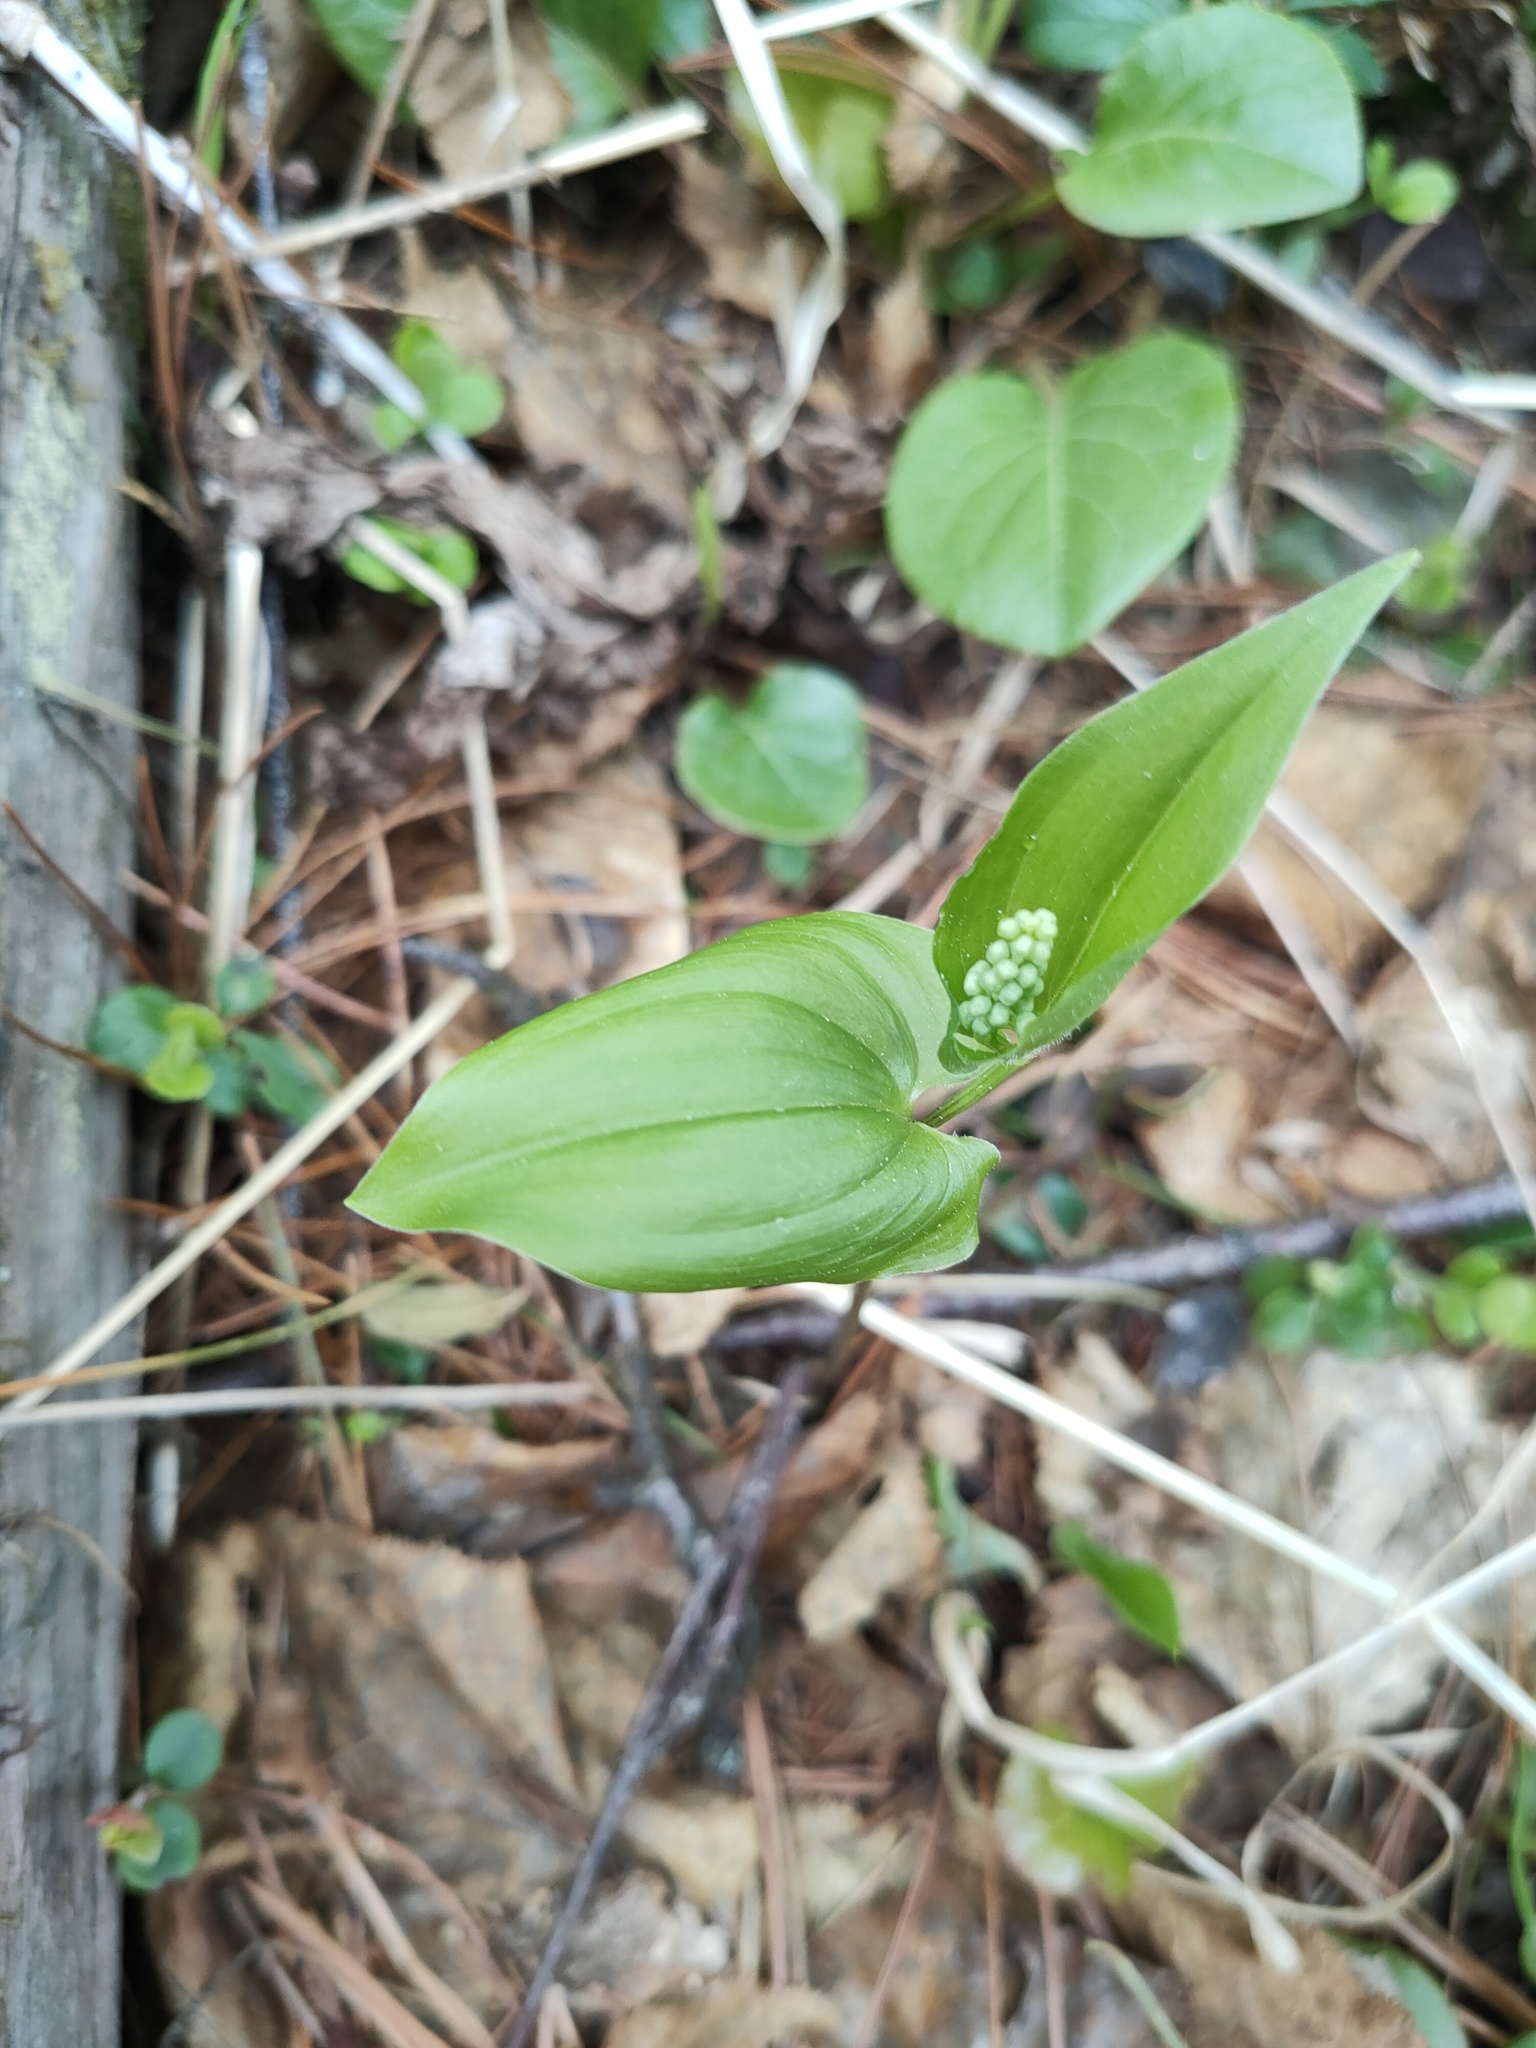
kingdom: Plantae
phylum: Tracheophyta
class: Liliopsida
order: Asparagales
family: Asparagaceae
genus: Maianthemum
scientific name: Maianthemum bifolium
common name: May lily
